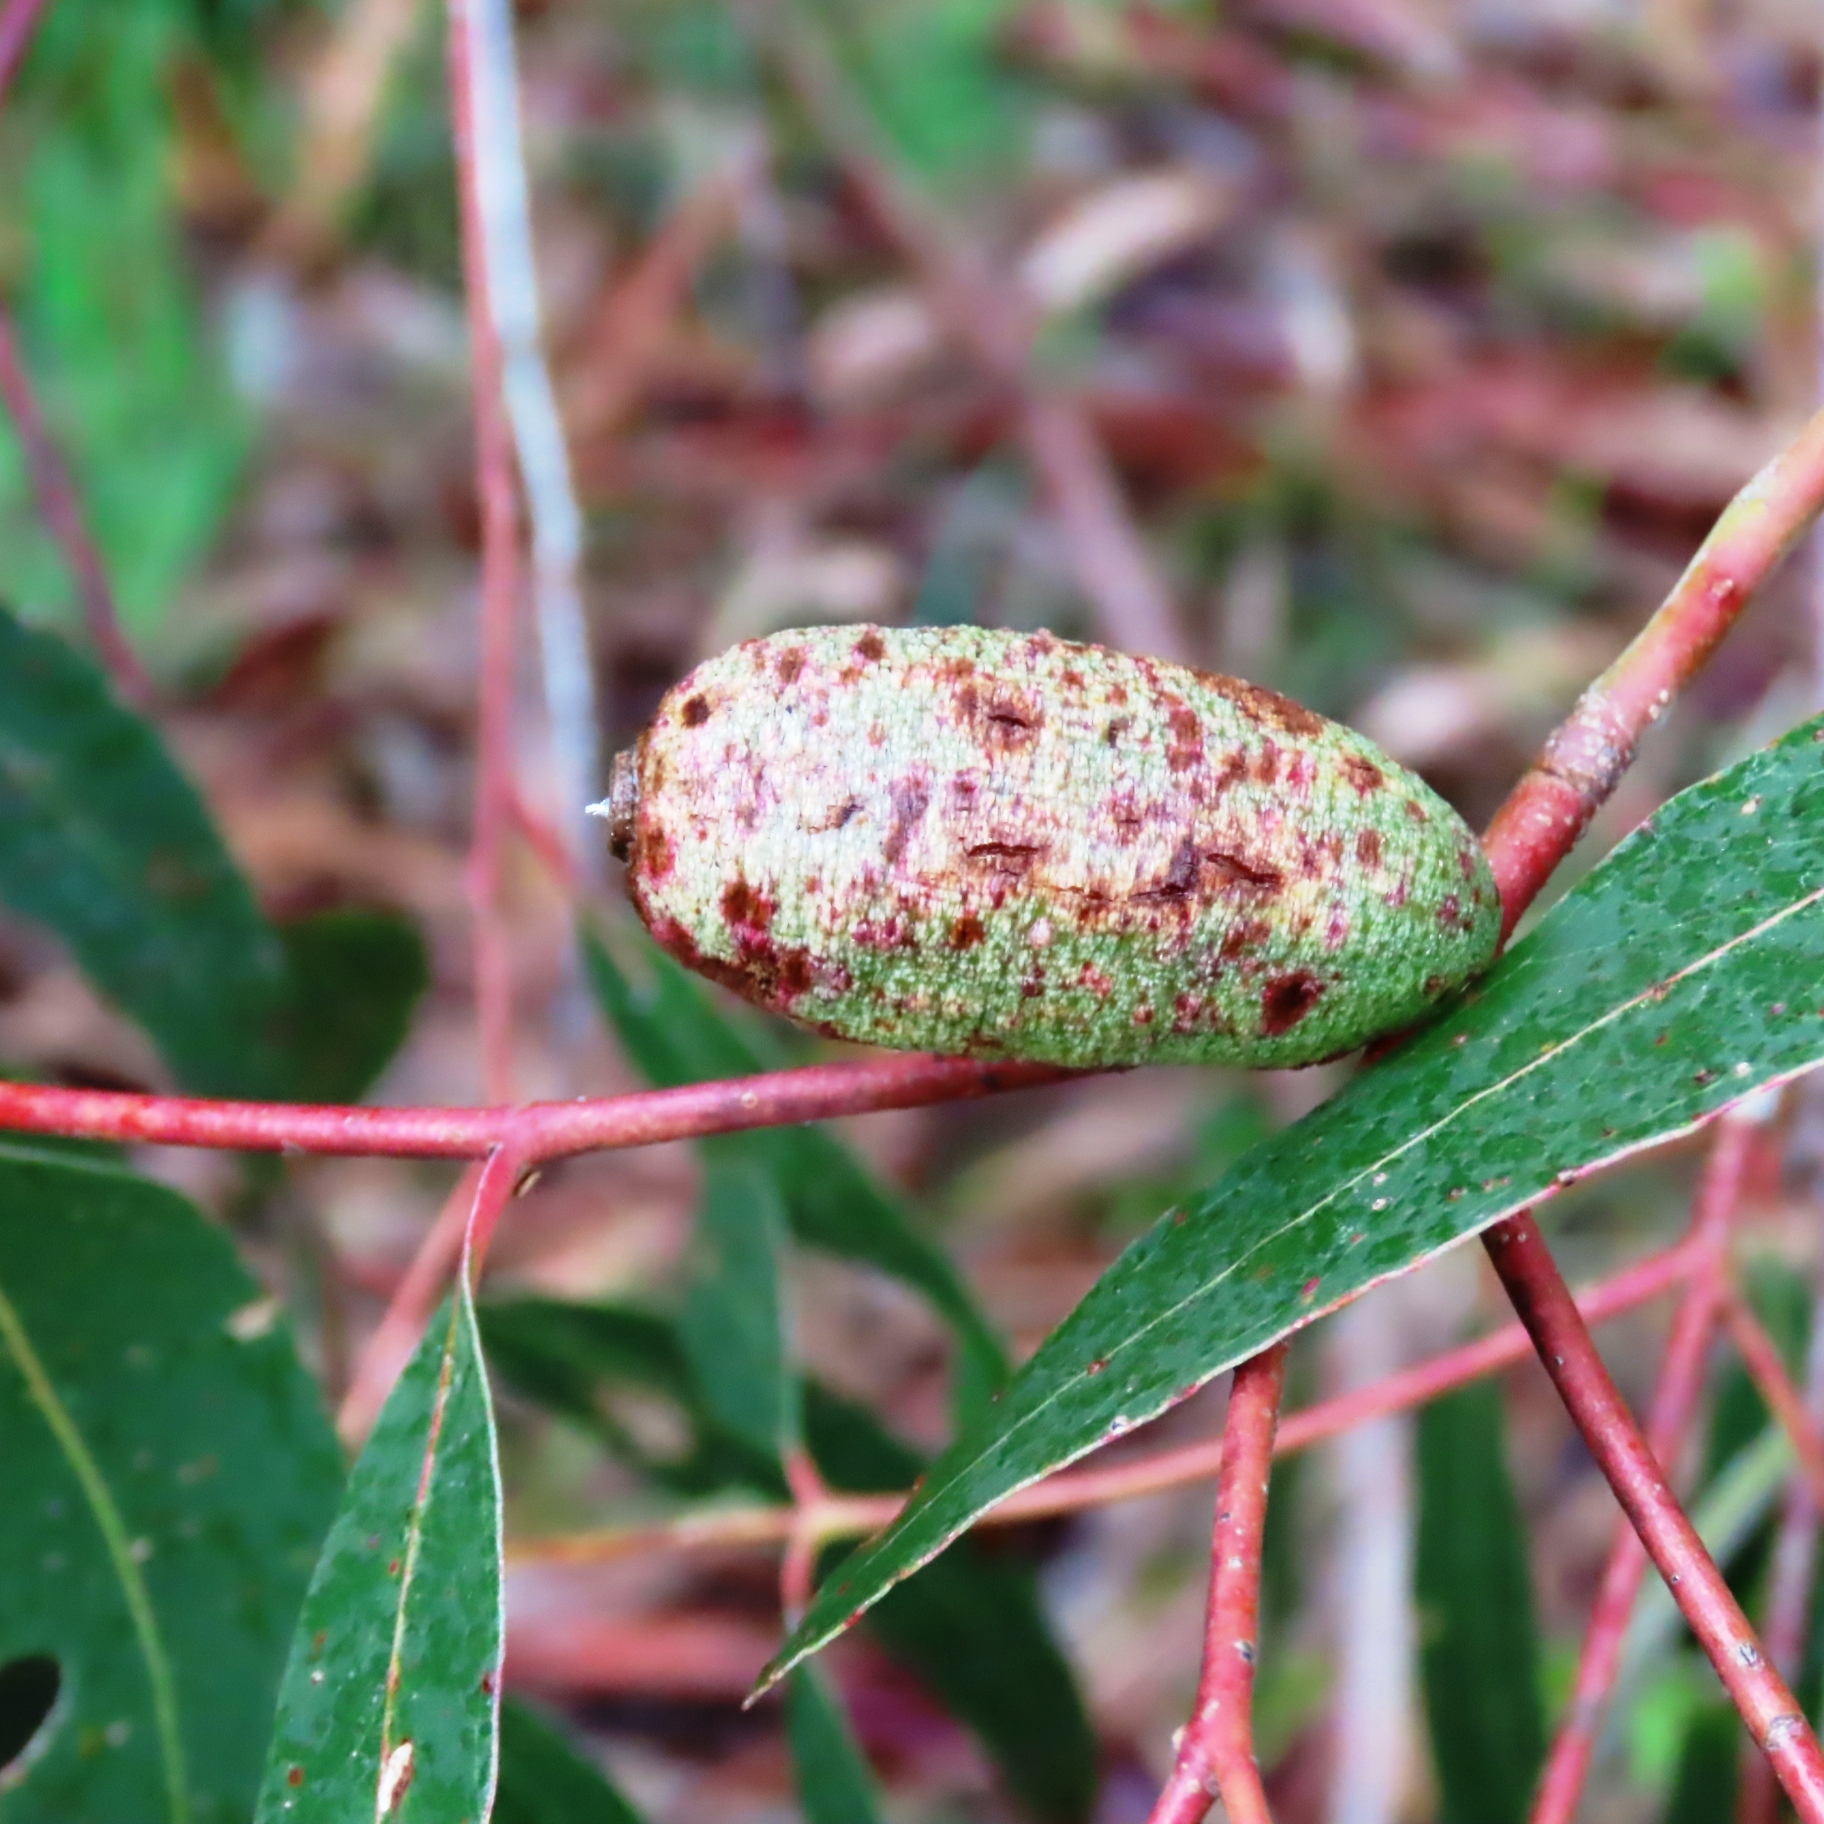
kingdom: Animalia
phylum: Arthropoda
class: Insecta
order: Hemiptera
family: Eriococcidae
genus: Apiomorpha
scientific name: Apiomorpha conica
